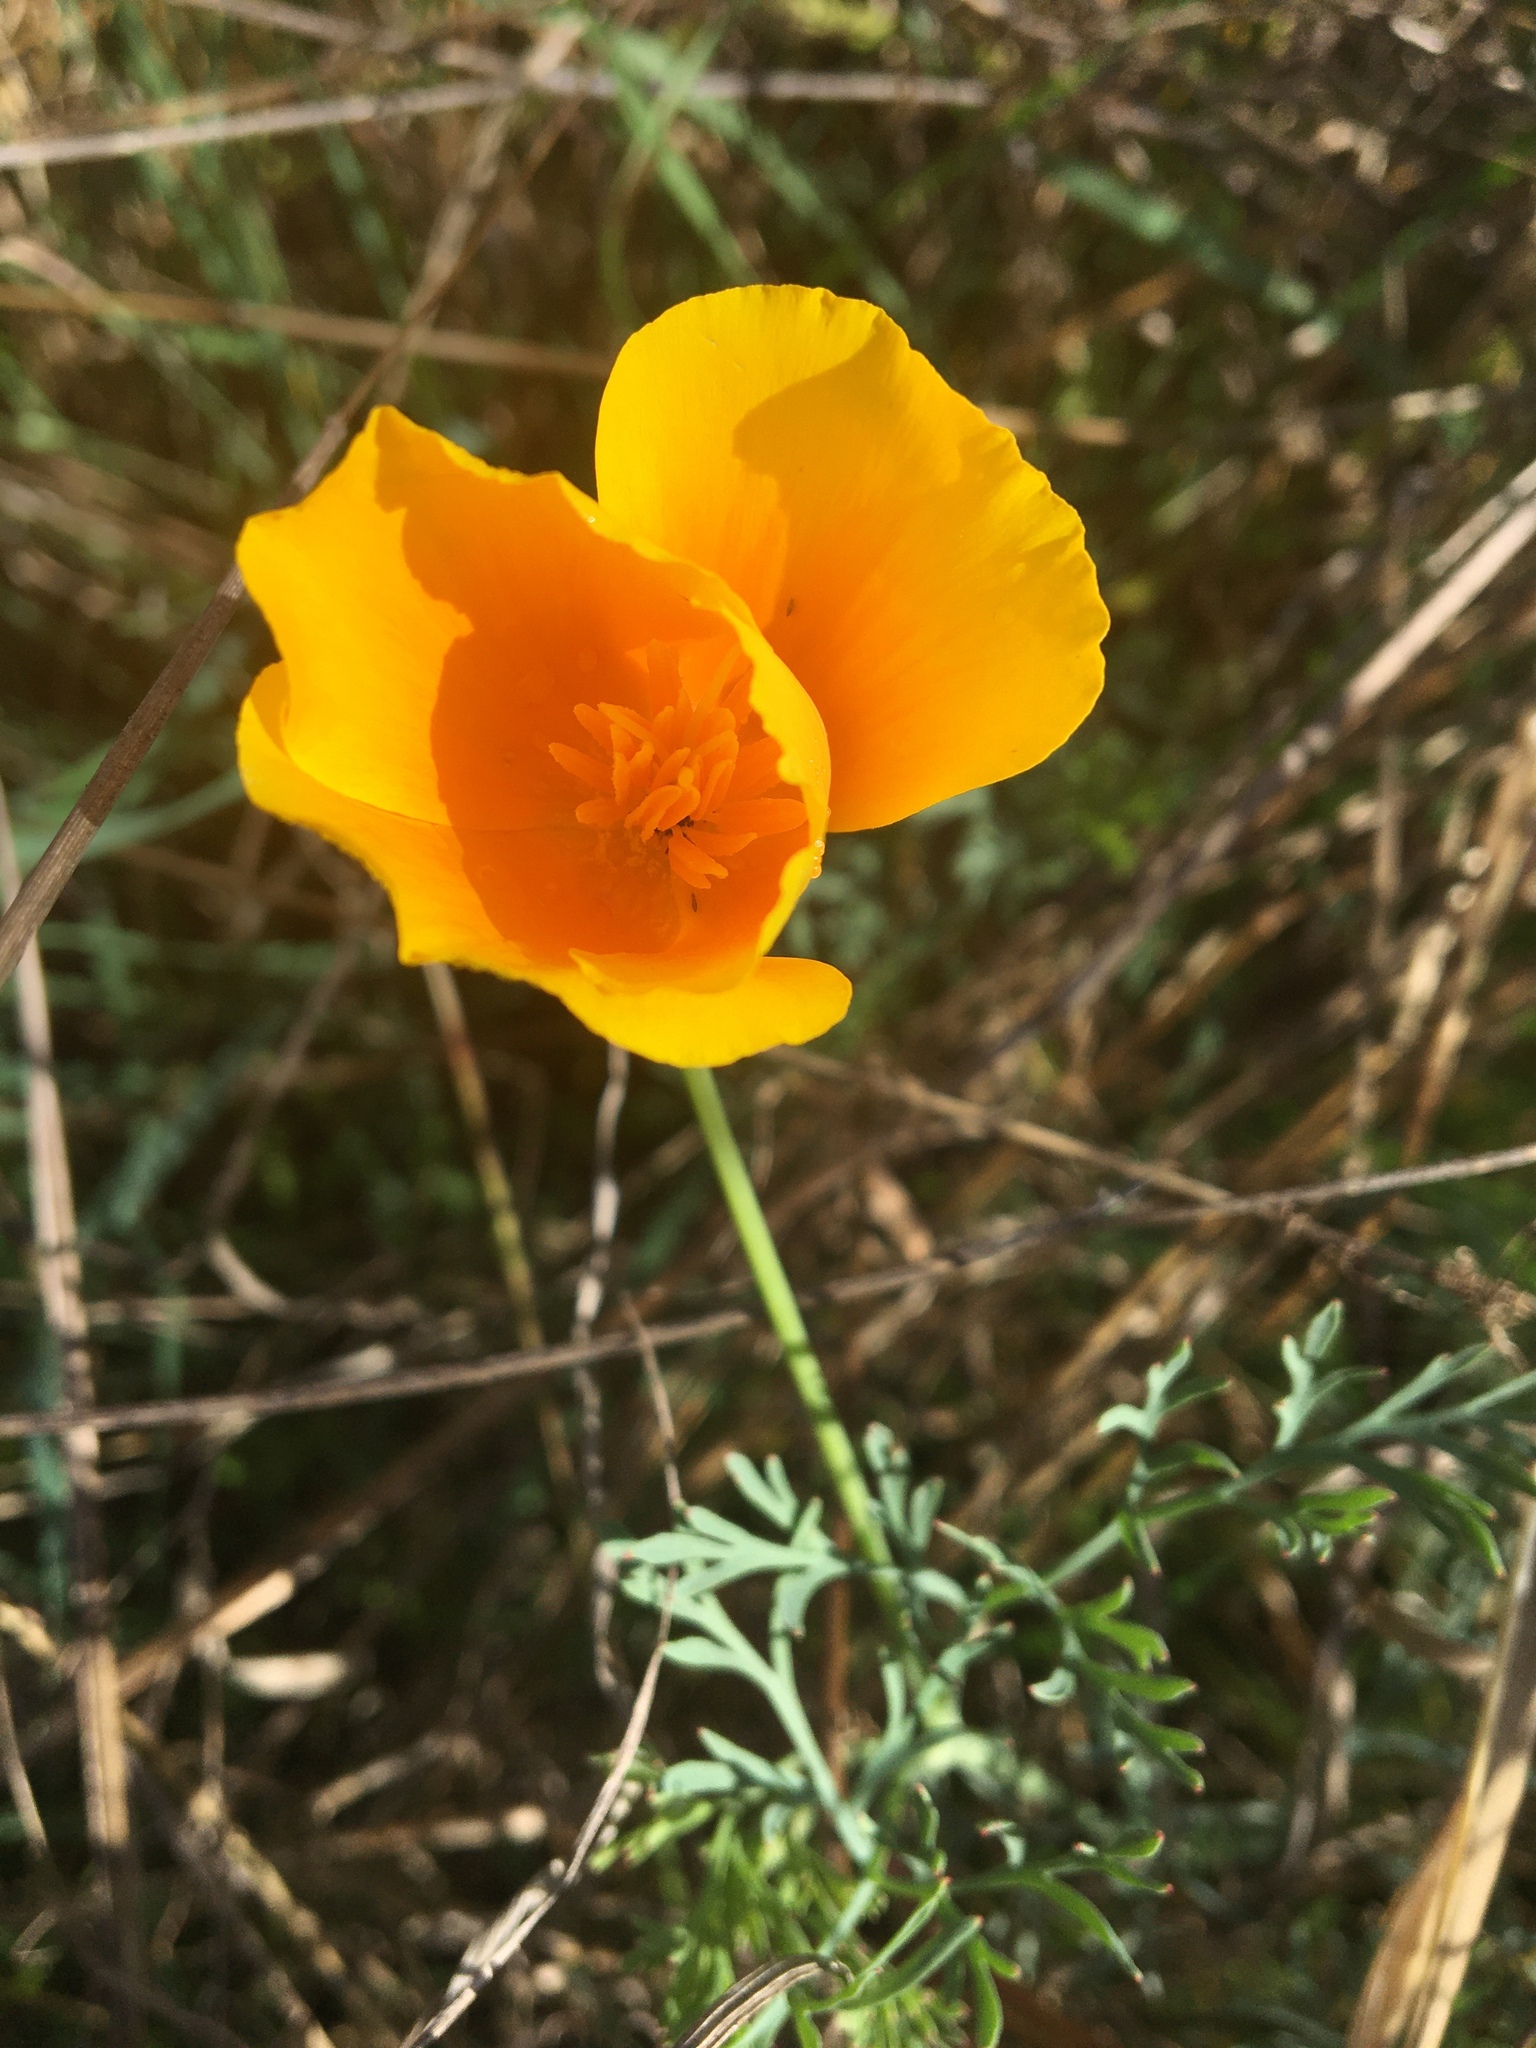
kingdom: Plantae
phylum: Tracheophyta
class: Magnoliopsida
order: Ranunculales
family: Papaveraceae
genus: Eschscholzia
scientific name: Eschscholzia californica
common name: California poppy
